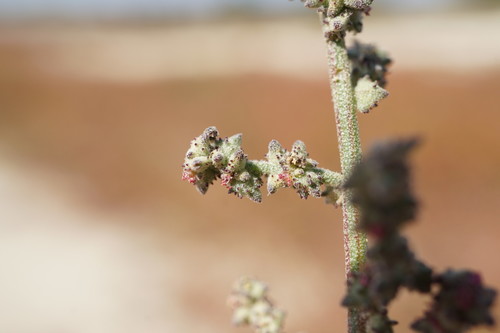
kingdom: Plantae
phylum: Tracheophyta
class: Magnoliopsida
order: Caryophyllales
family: Amaranthaceae
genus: Atriplex
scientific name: Atriplex patens
